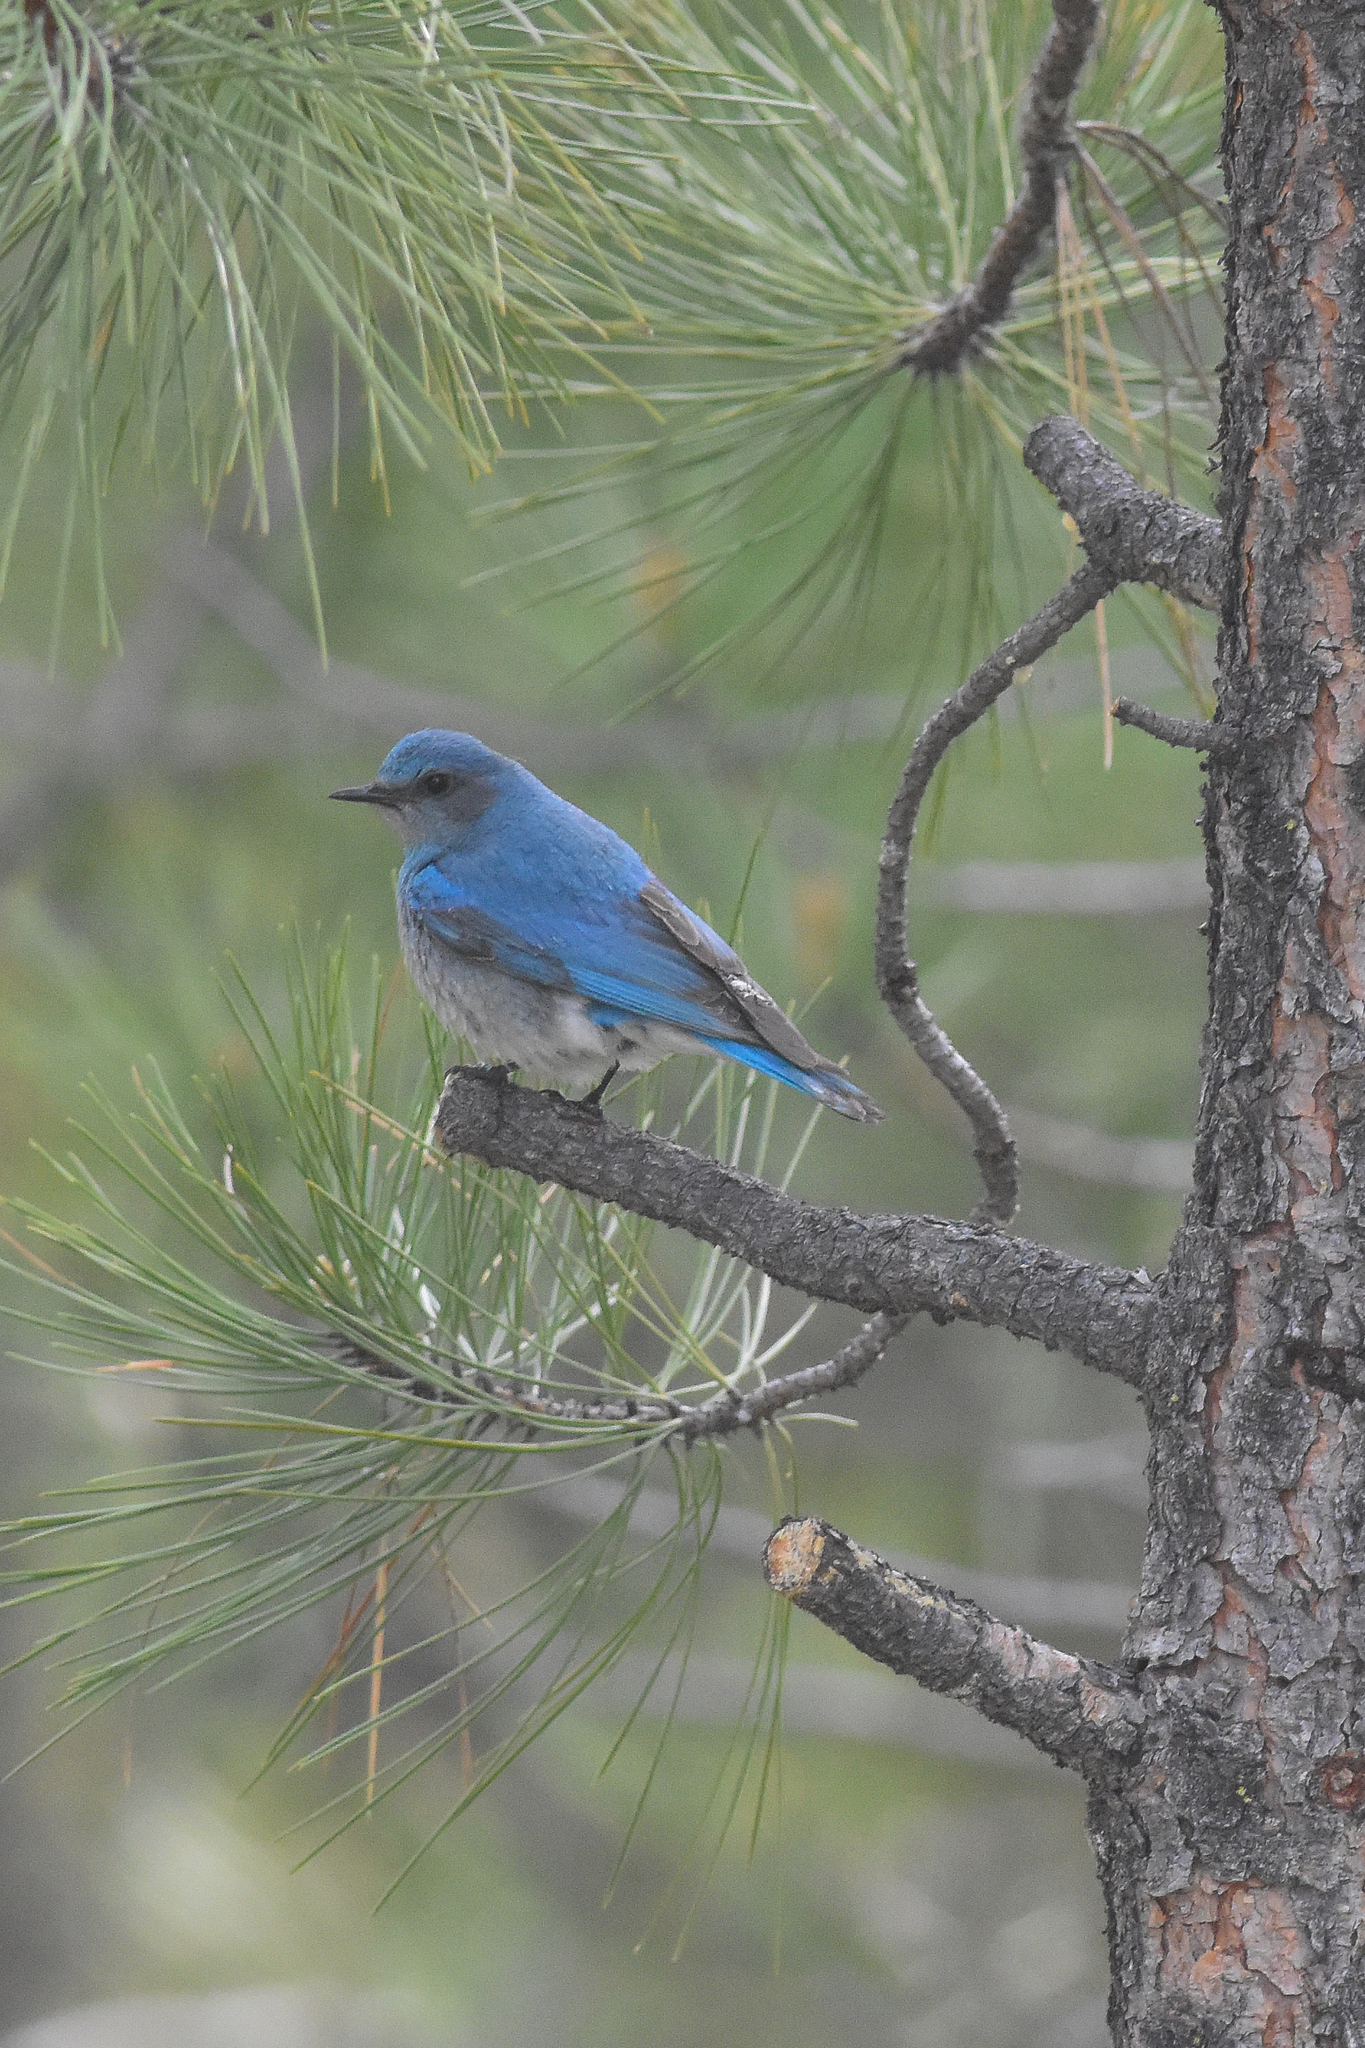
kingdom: Animalia
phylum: Chordata
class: Aves
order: Passeriformes
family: Turdidae
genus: Sialia
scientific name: Sialia currucoides
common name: Mountain bluebird
